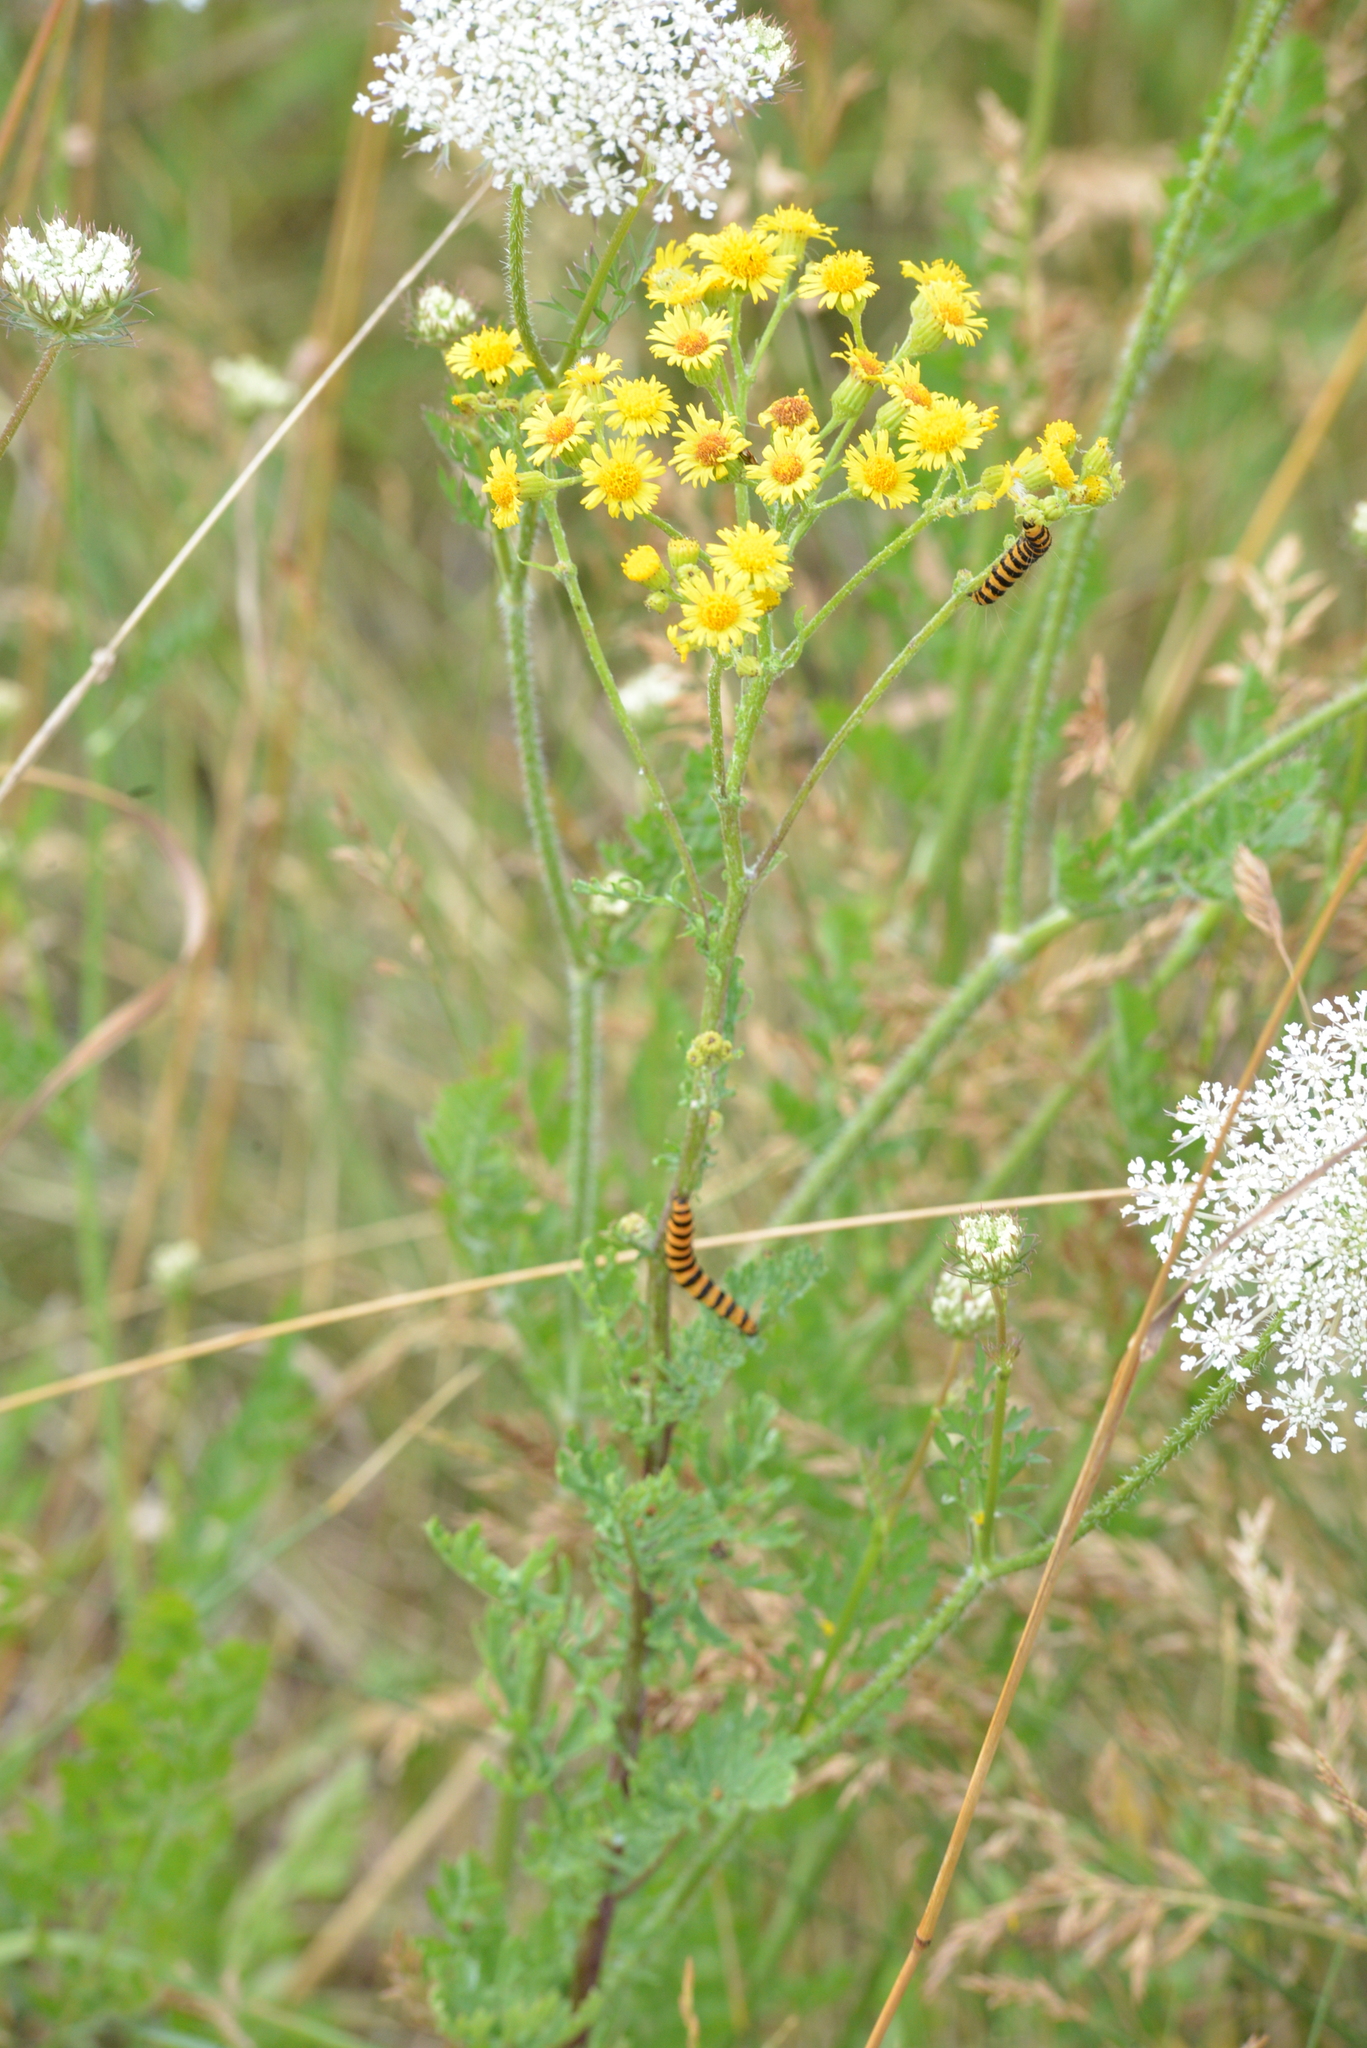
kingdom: Animalia
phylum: Arthropoda
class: Insecta
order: Lepidoptera
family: Erebidae
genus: Tyria
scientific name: Tyria jacobaeae
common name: Cinnabar
